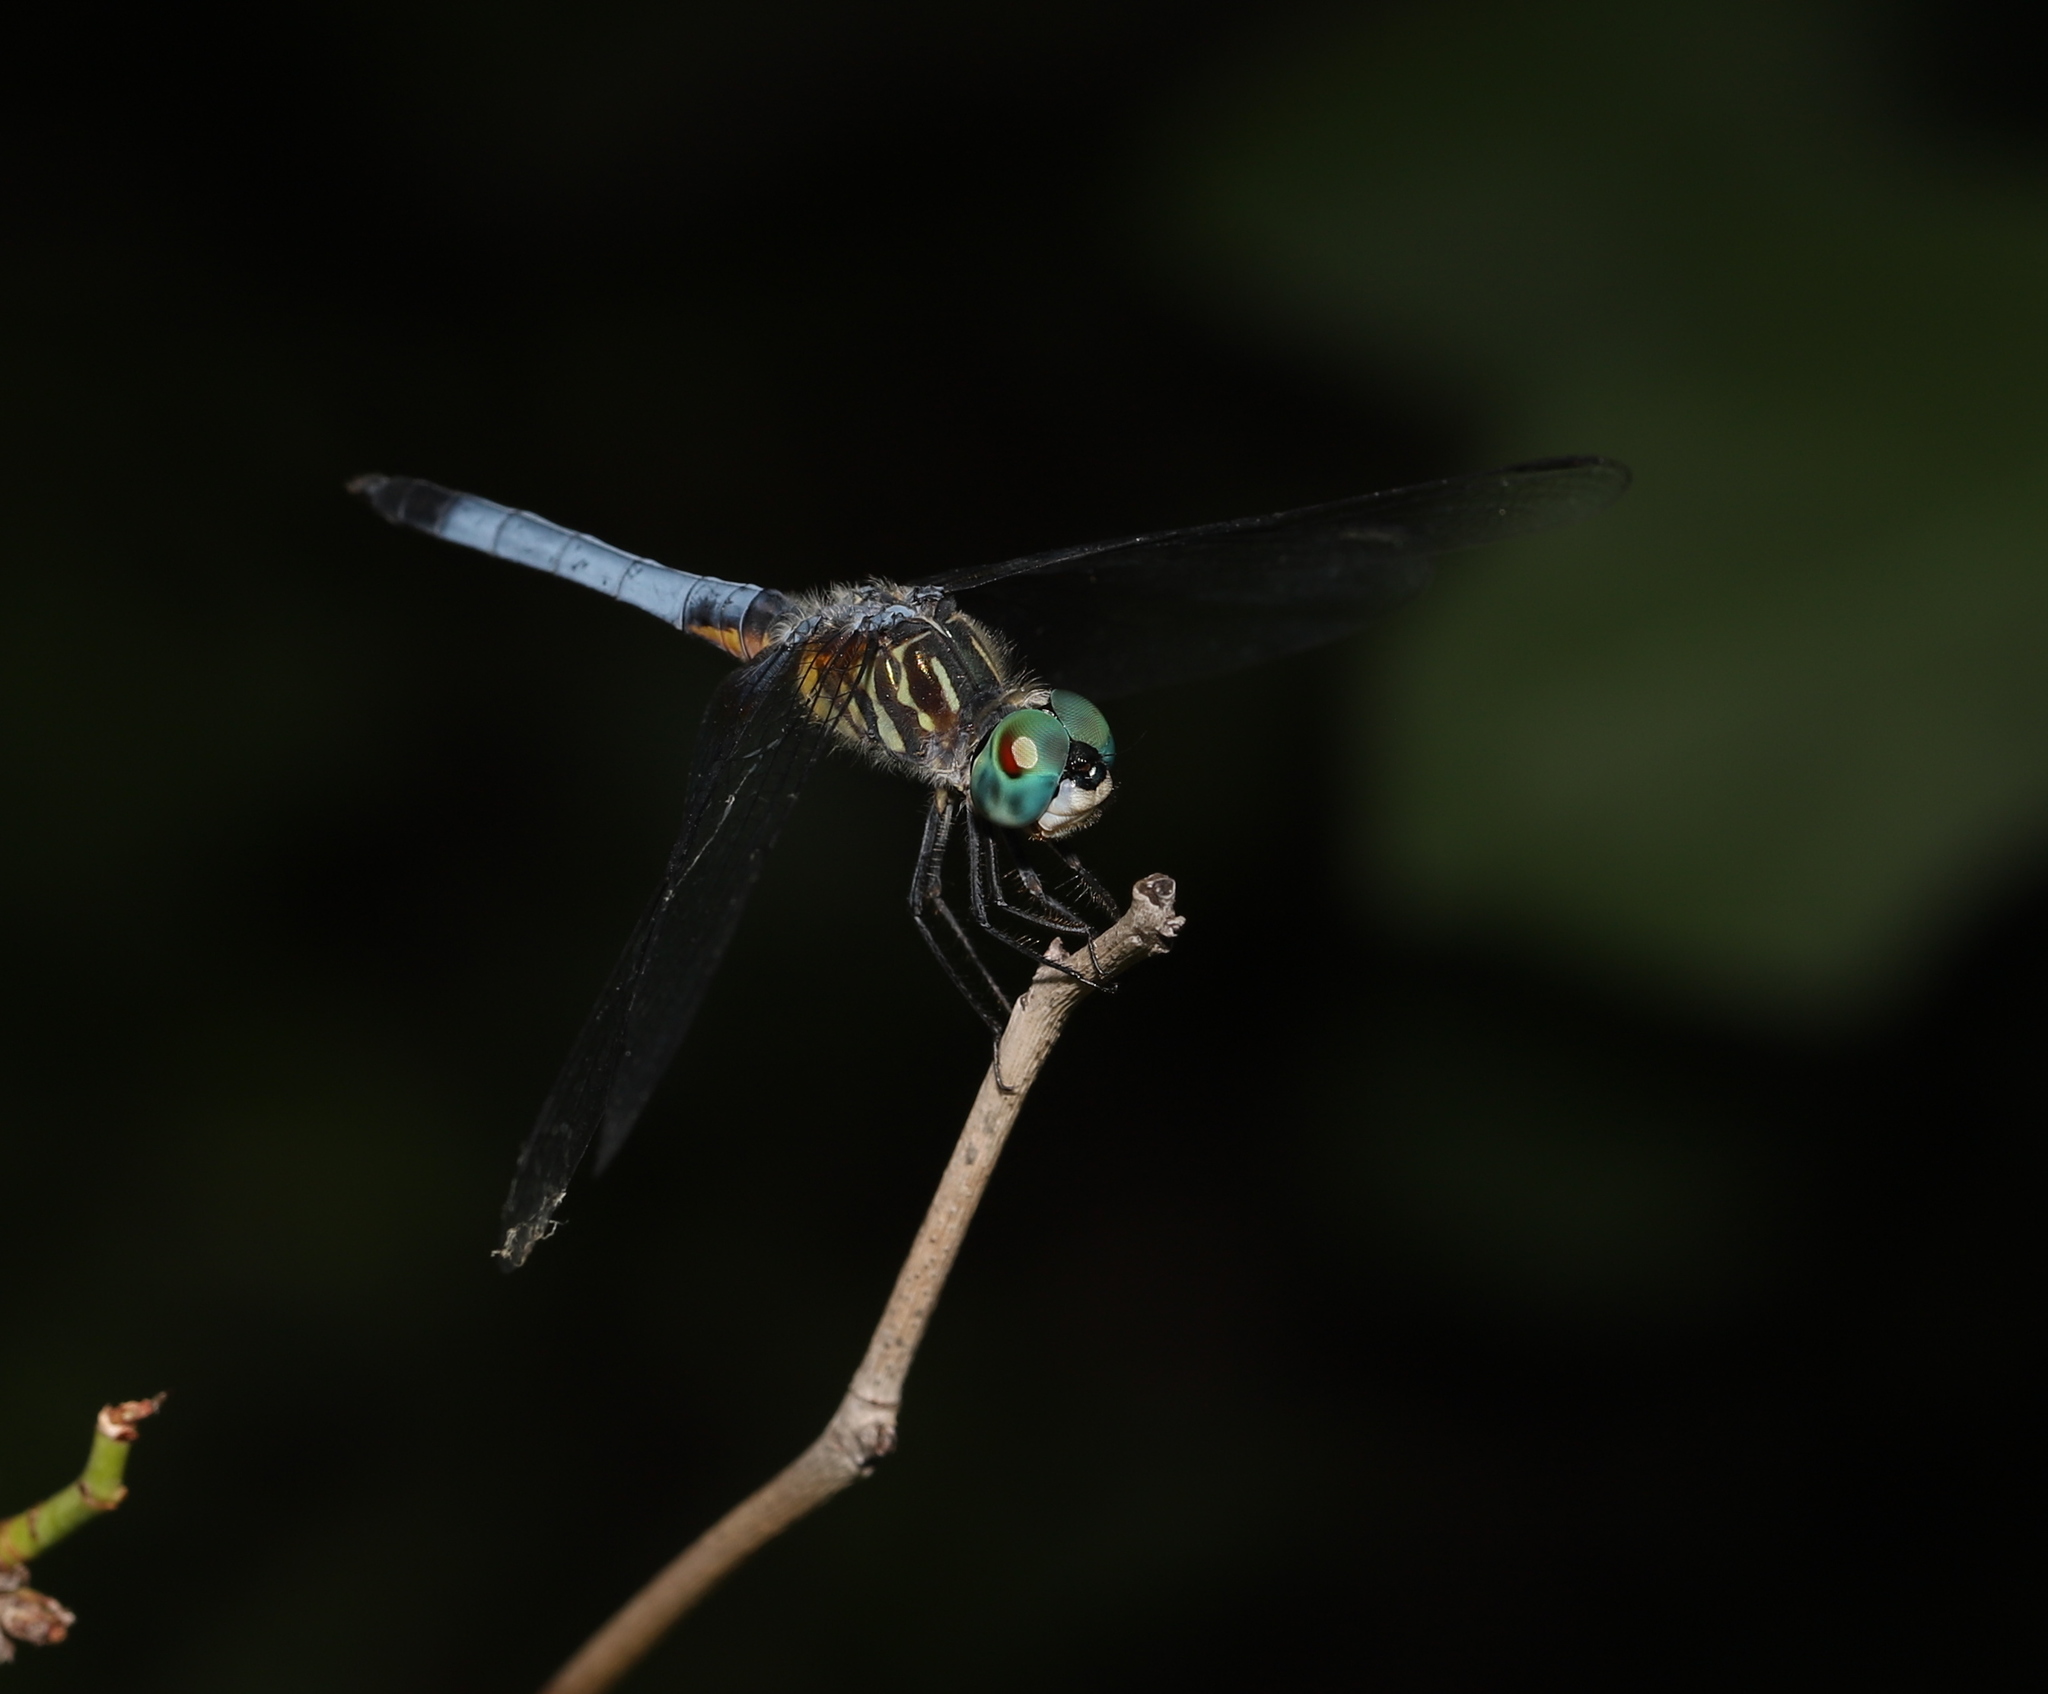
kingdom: Animalia
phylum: Arthropoda
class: Insecta
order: Odonata
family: Libellulidae
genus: Pachydiplax
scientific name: Pachydiplax longipennis
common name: Blue dasher
